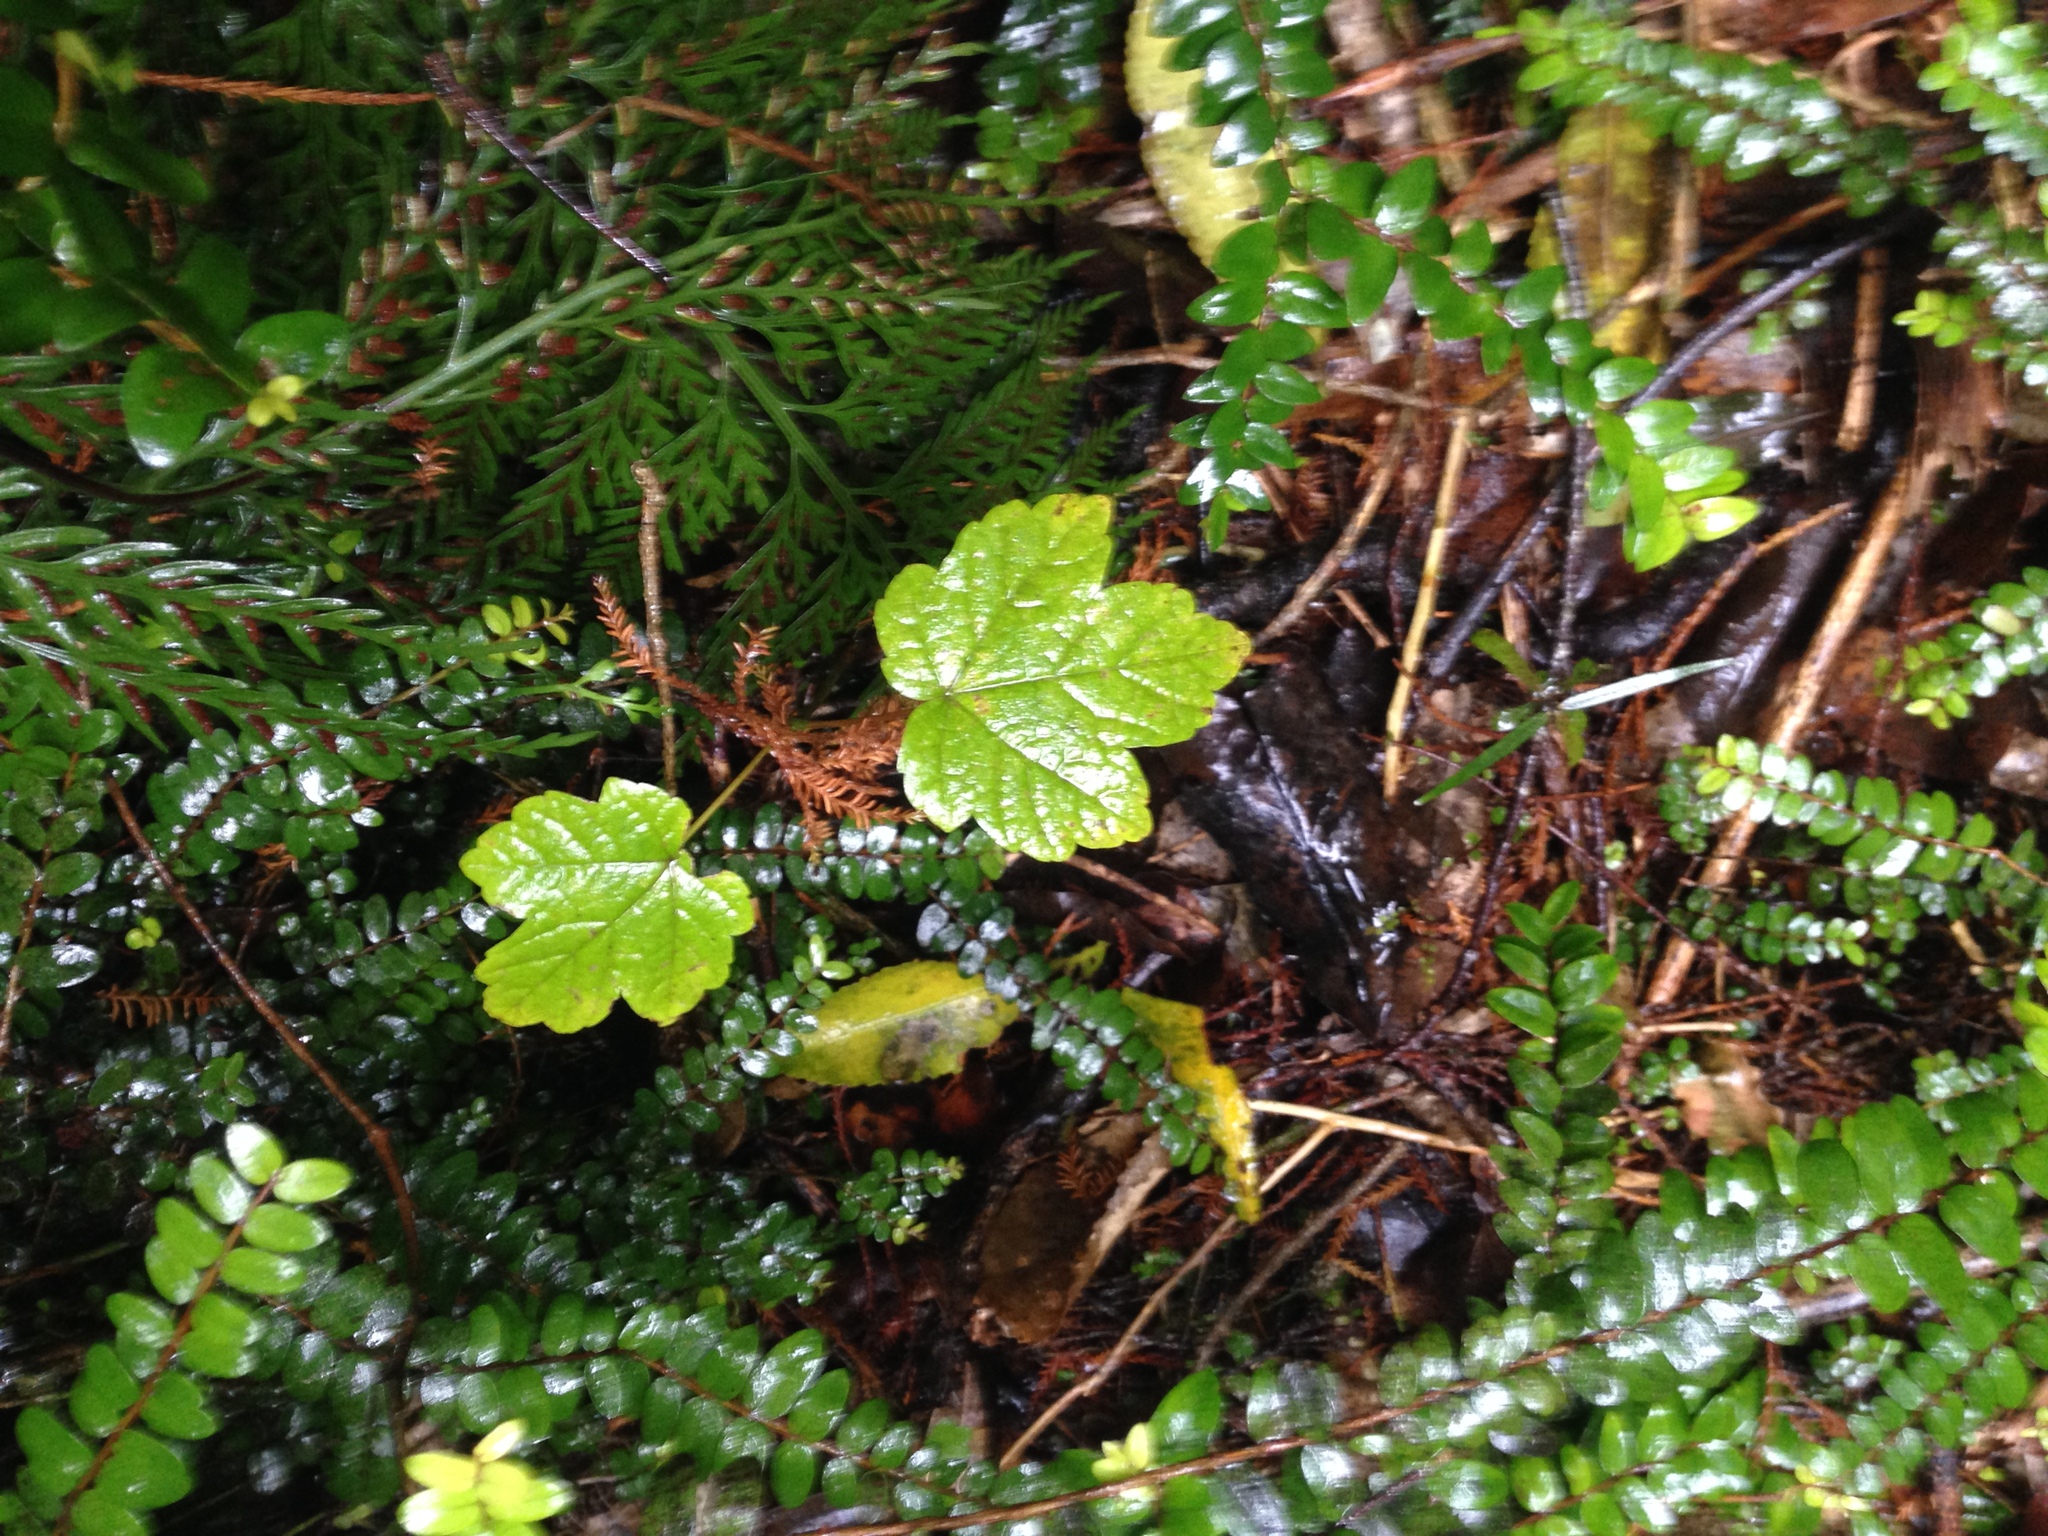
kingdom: Plantae
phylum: Tracheophyta
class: Magnoliopsida
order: Sapindales
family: Sapindaceae
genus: Acer
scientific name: Acer pseudoplatanus
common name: Sycamore
